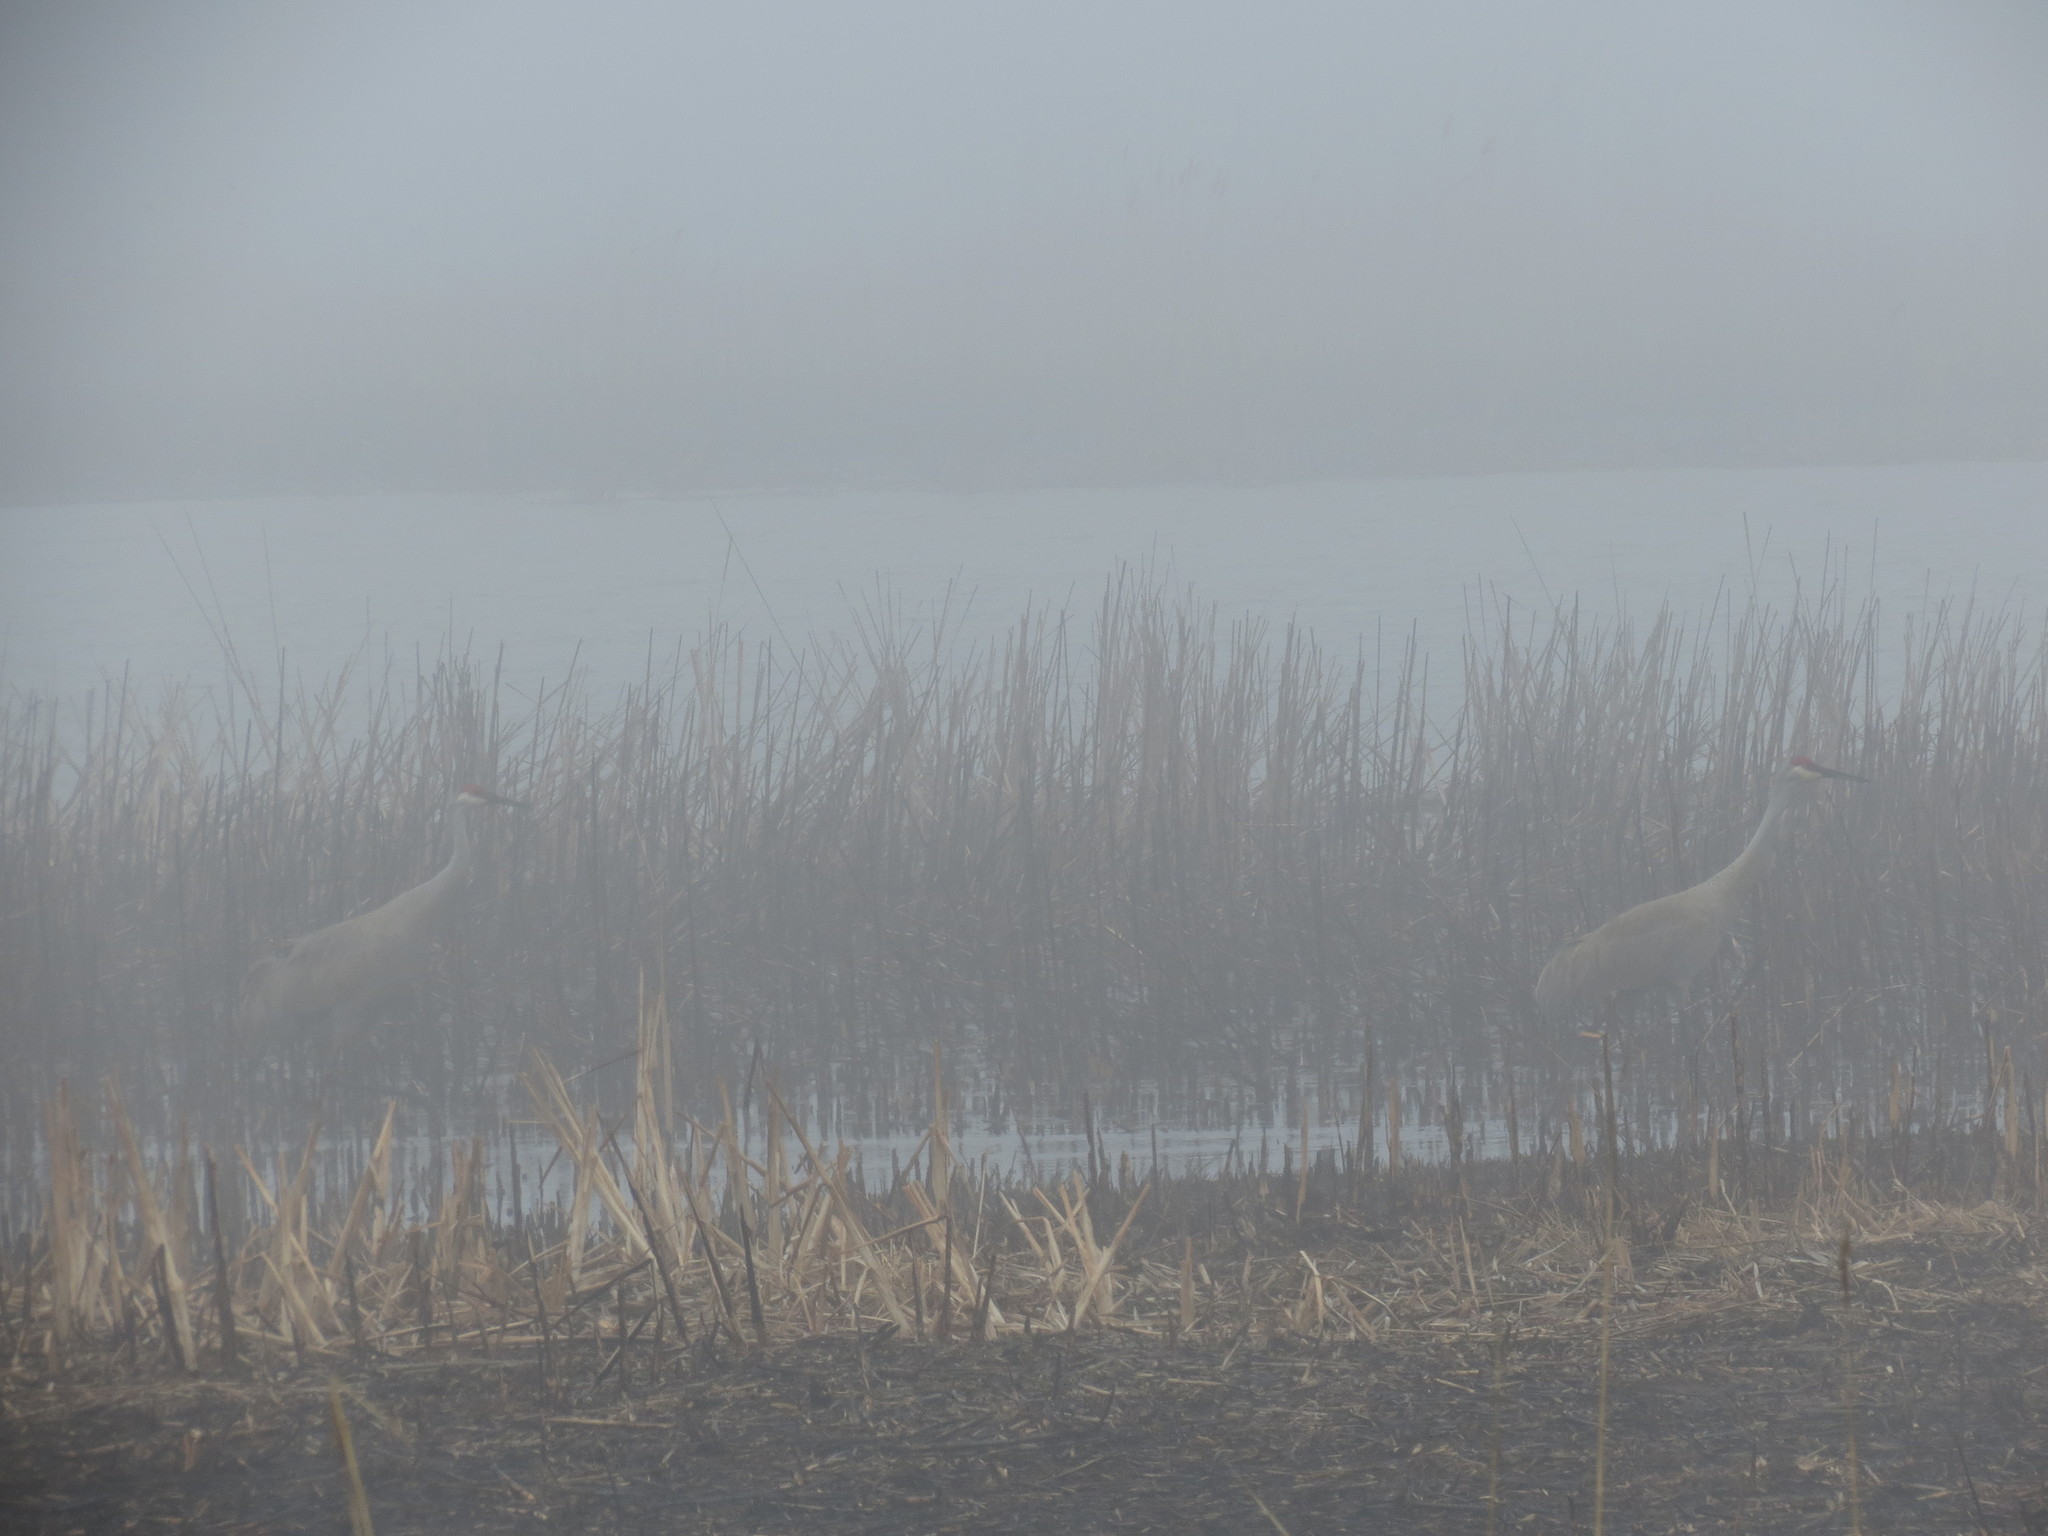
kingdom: Animalia
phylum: Chordata
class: Aves
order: Gruiformes
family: Gruidae
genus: Grus
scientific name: Grus canadensis
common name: Sandhill crane
